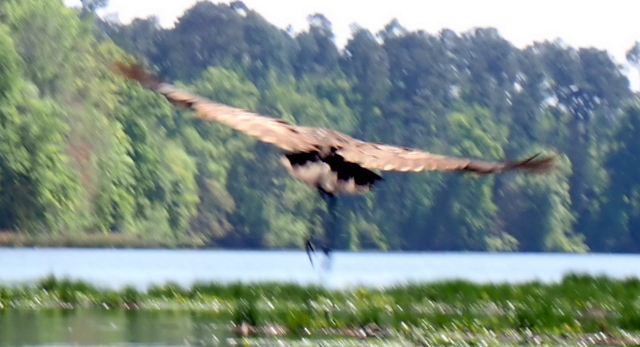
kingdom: Animalia
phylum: Chordata
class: Aves
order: Gruiformes
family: Aramidae
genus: Aramus
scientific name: Aramus guarauna
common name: Limpkin
